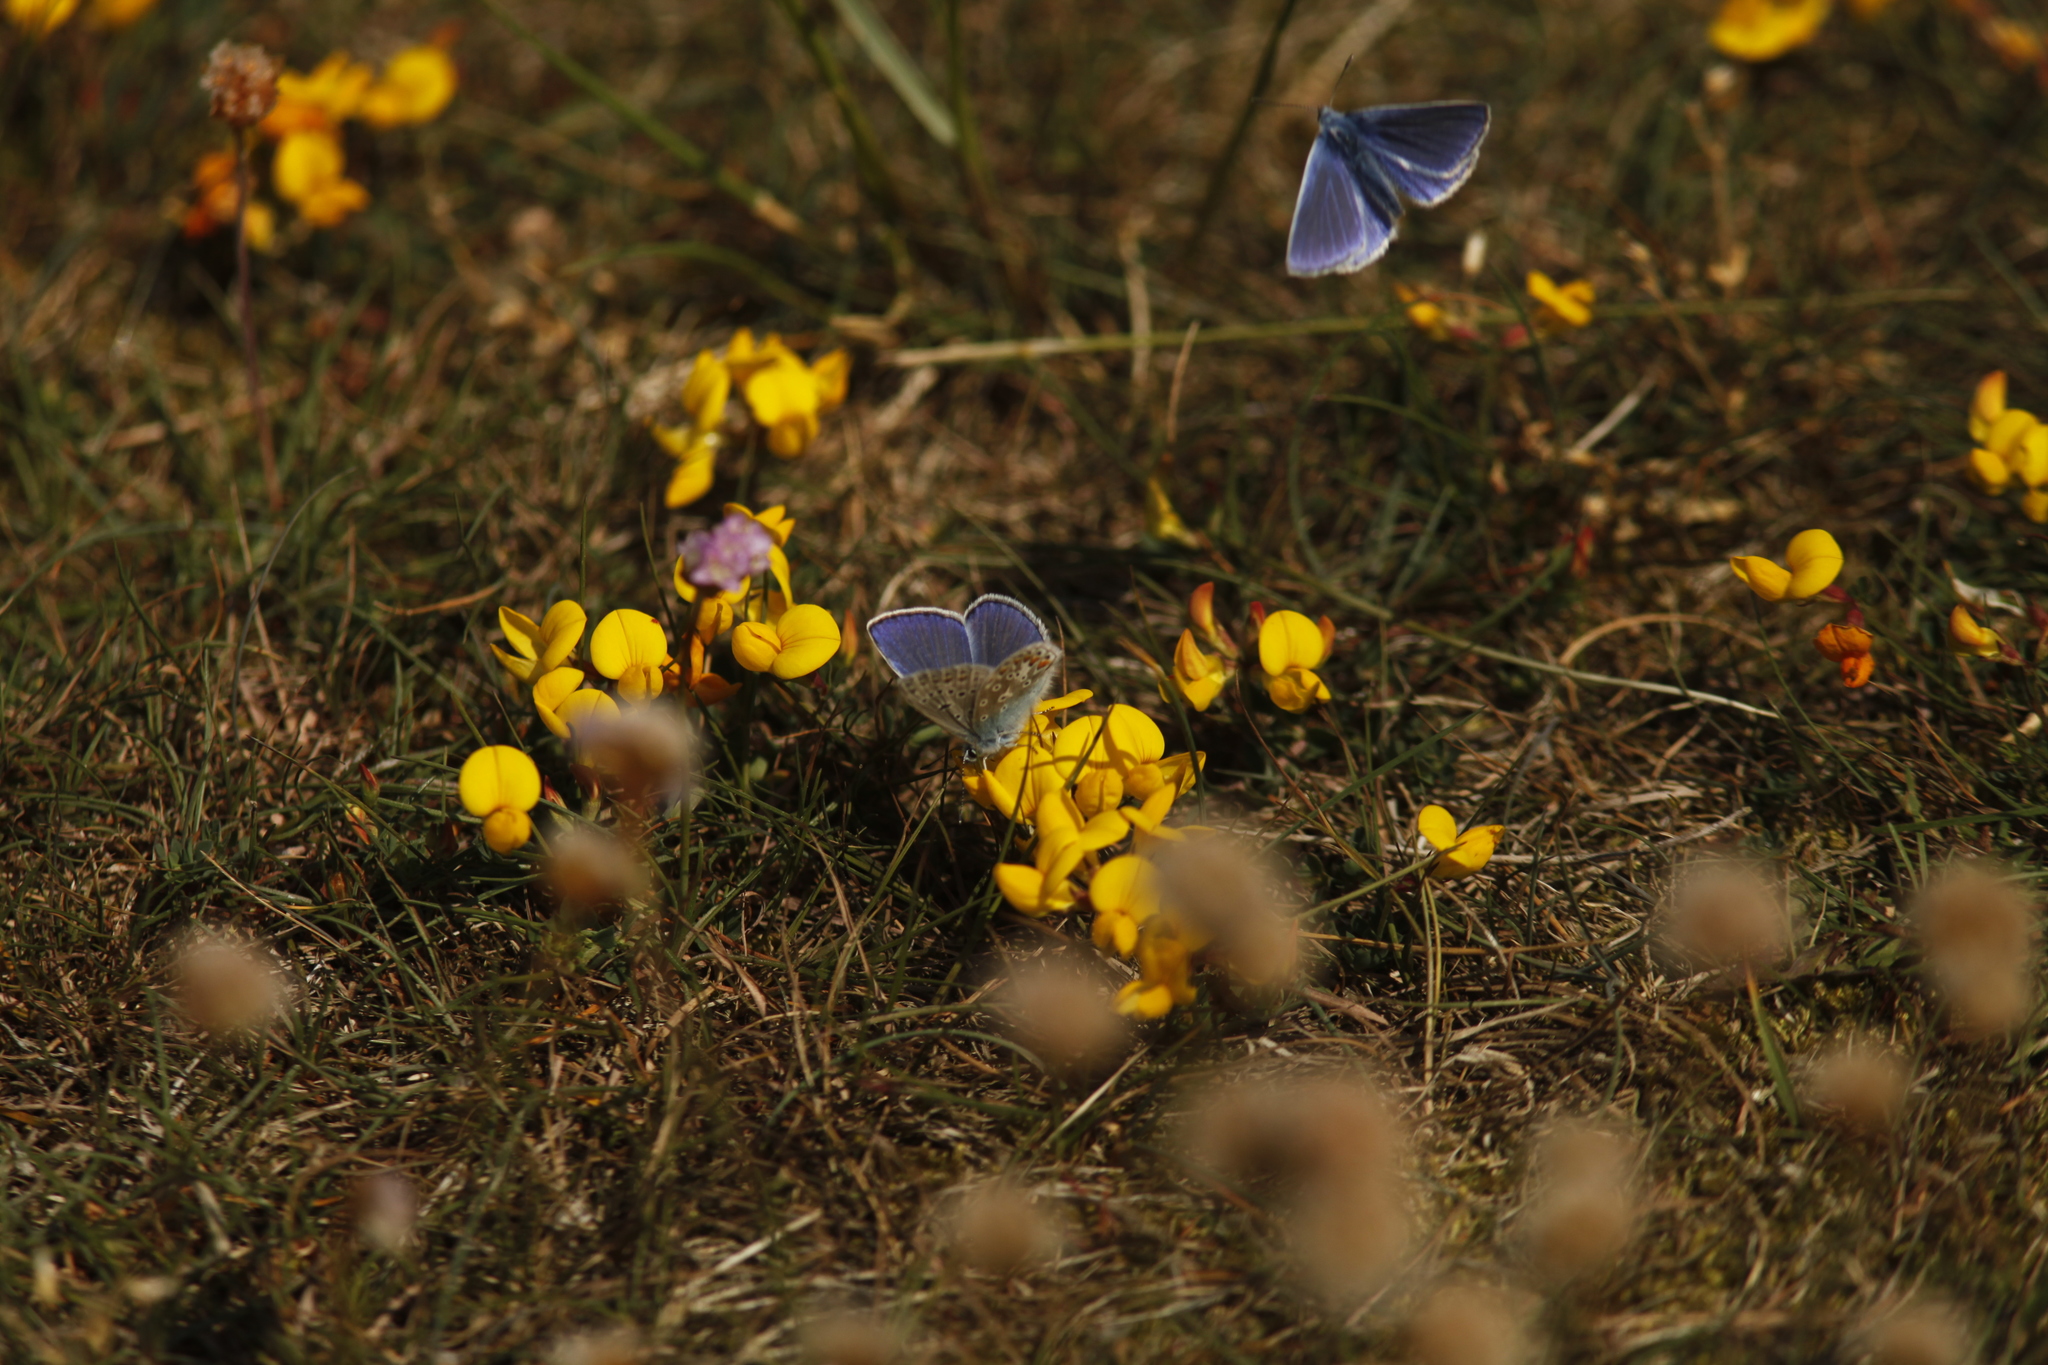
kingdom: Animalia
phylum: Arthropoda
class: Insecta
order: Lepidoptera
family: Lycaenidae
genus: Polyommatus
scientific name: Polyommatus icarus
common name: Common blue
